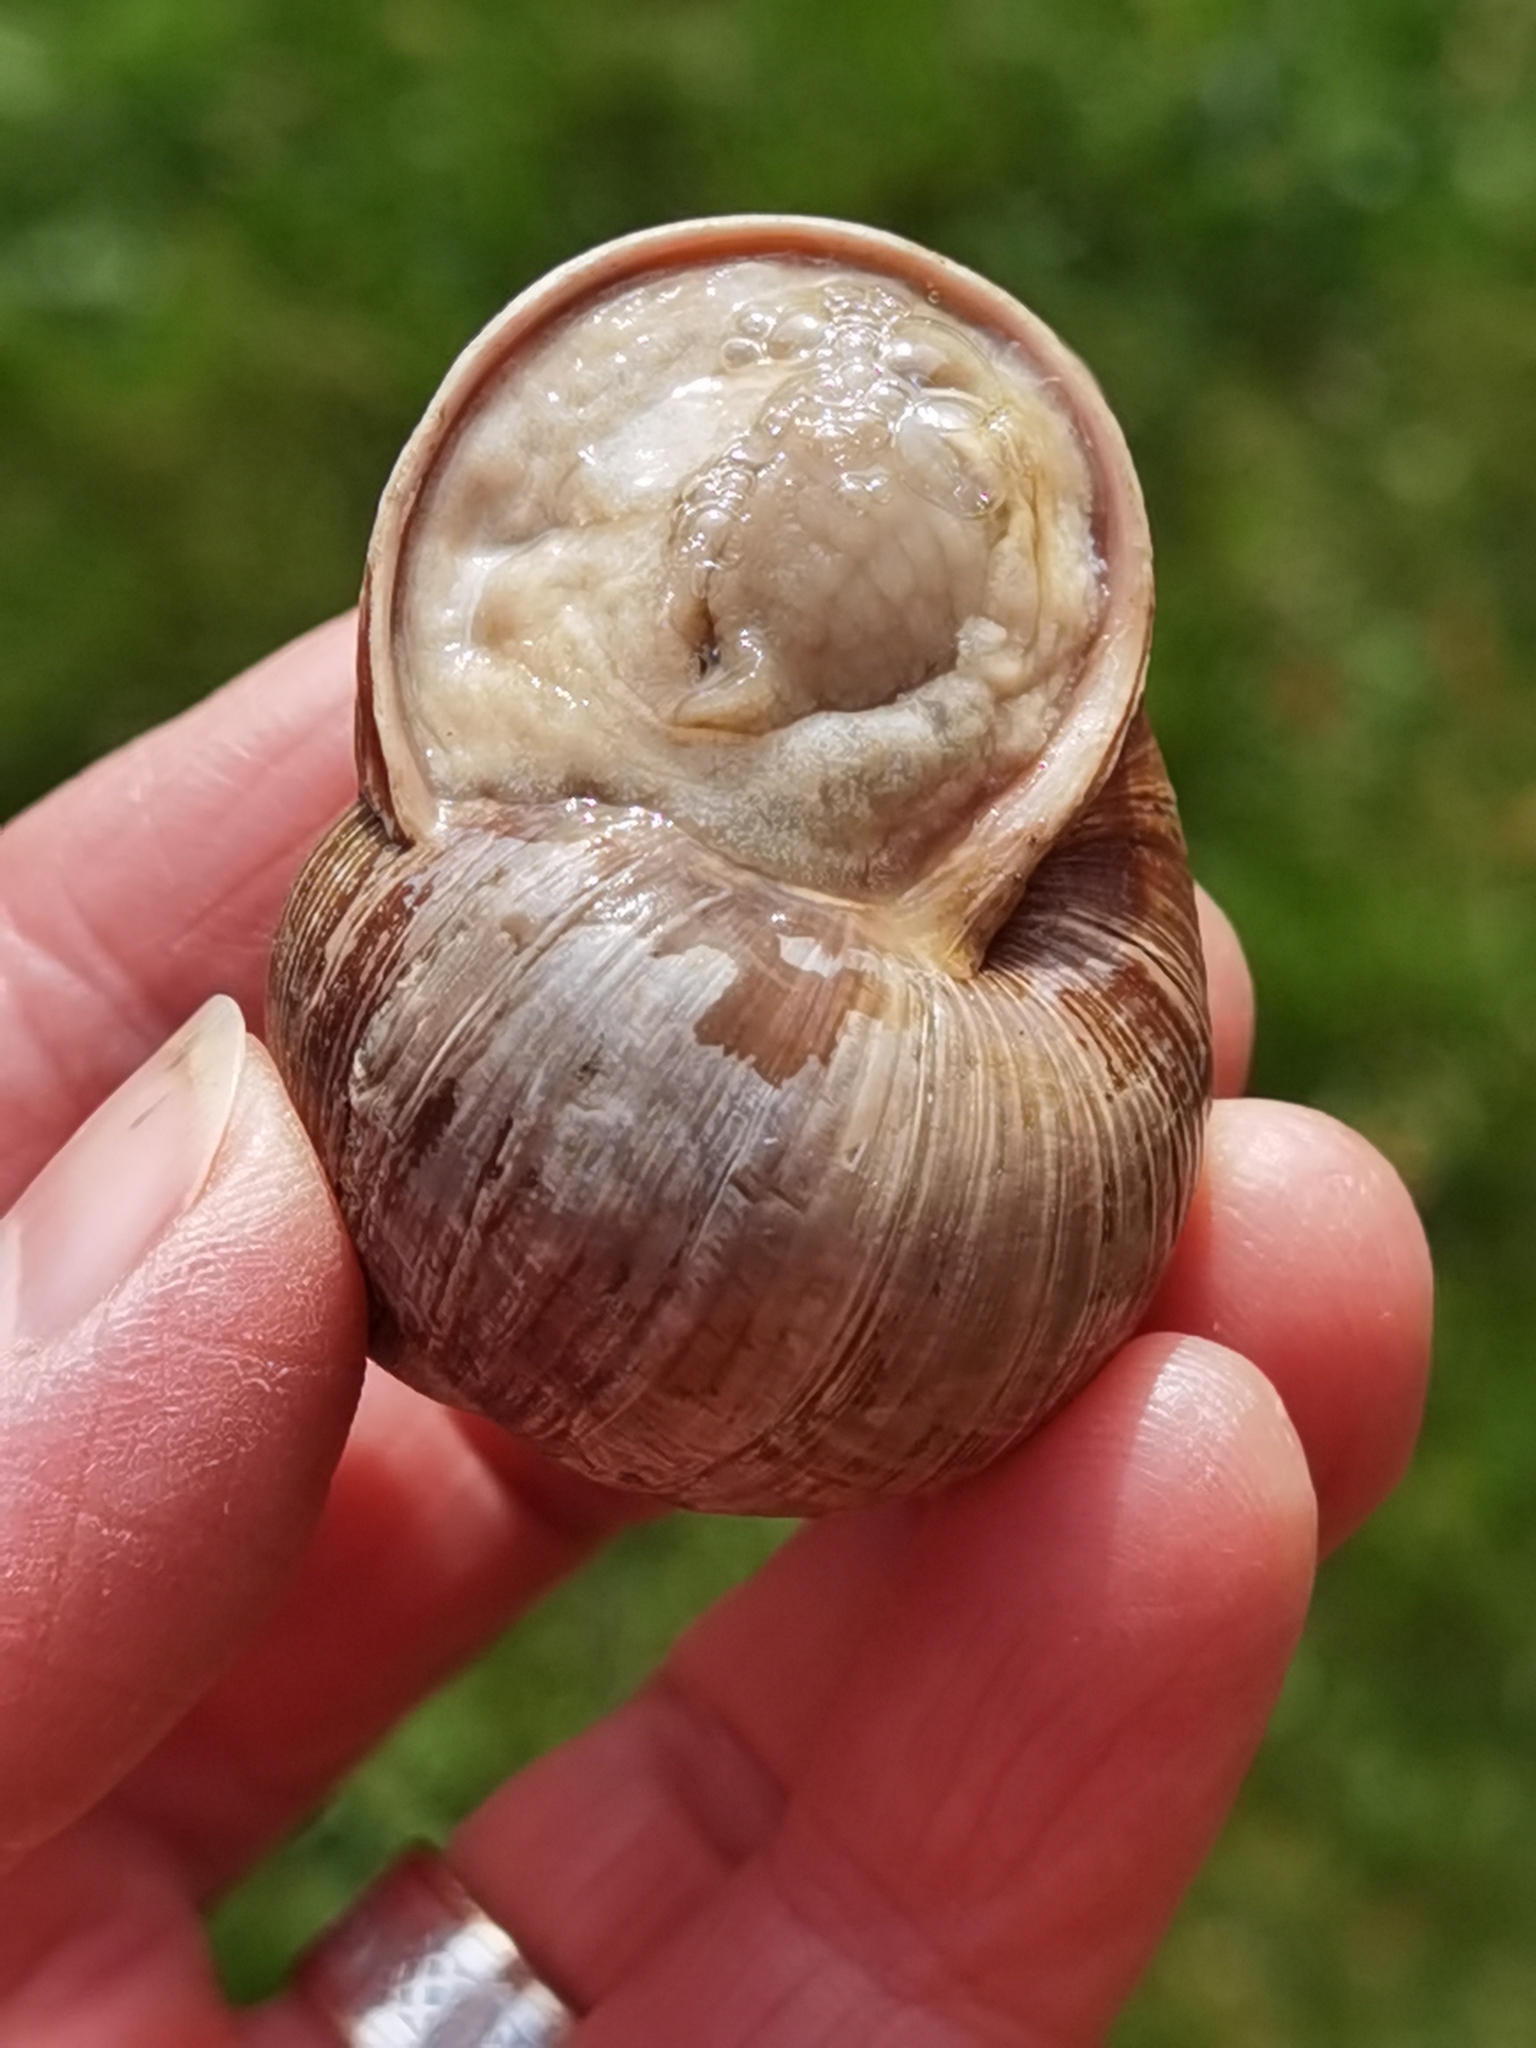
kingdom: Animalia
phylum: Mollusca
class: Gastropoda
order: Stylommatophora
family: Helicidae
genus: Helix
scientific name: Helix pomatia
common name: Roman snail
